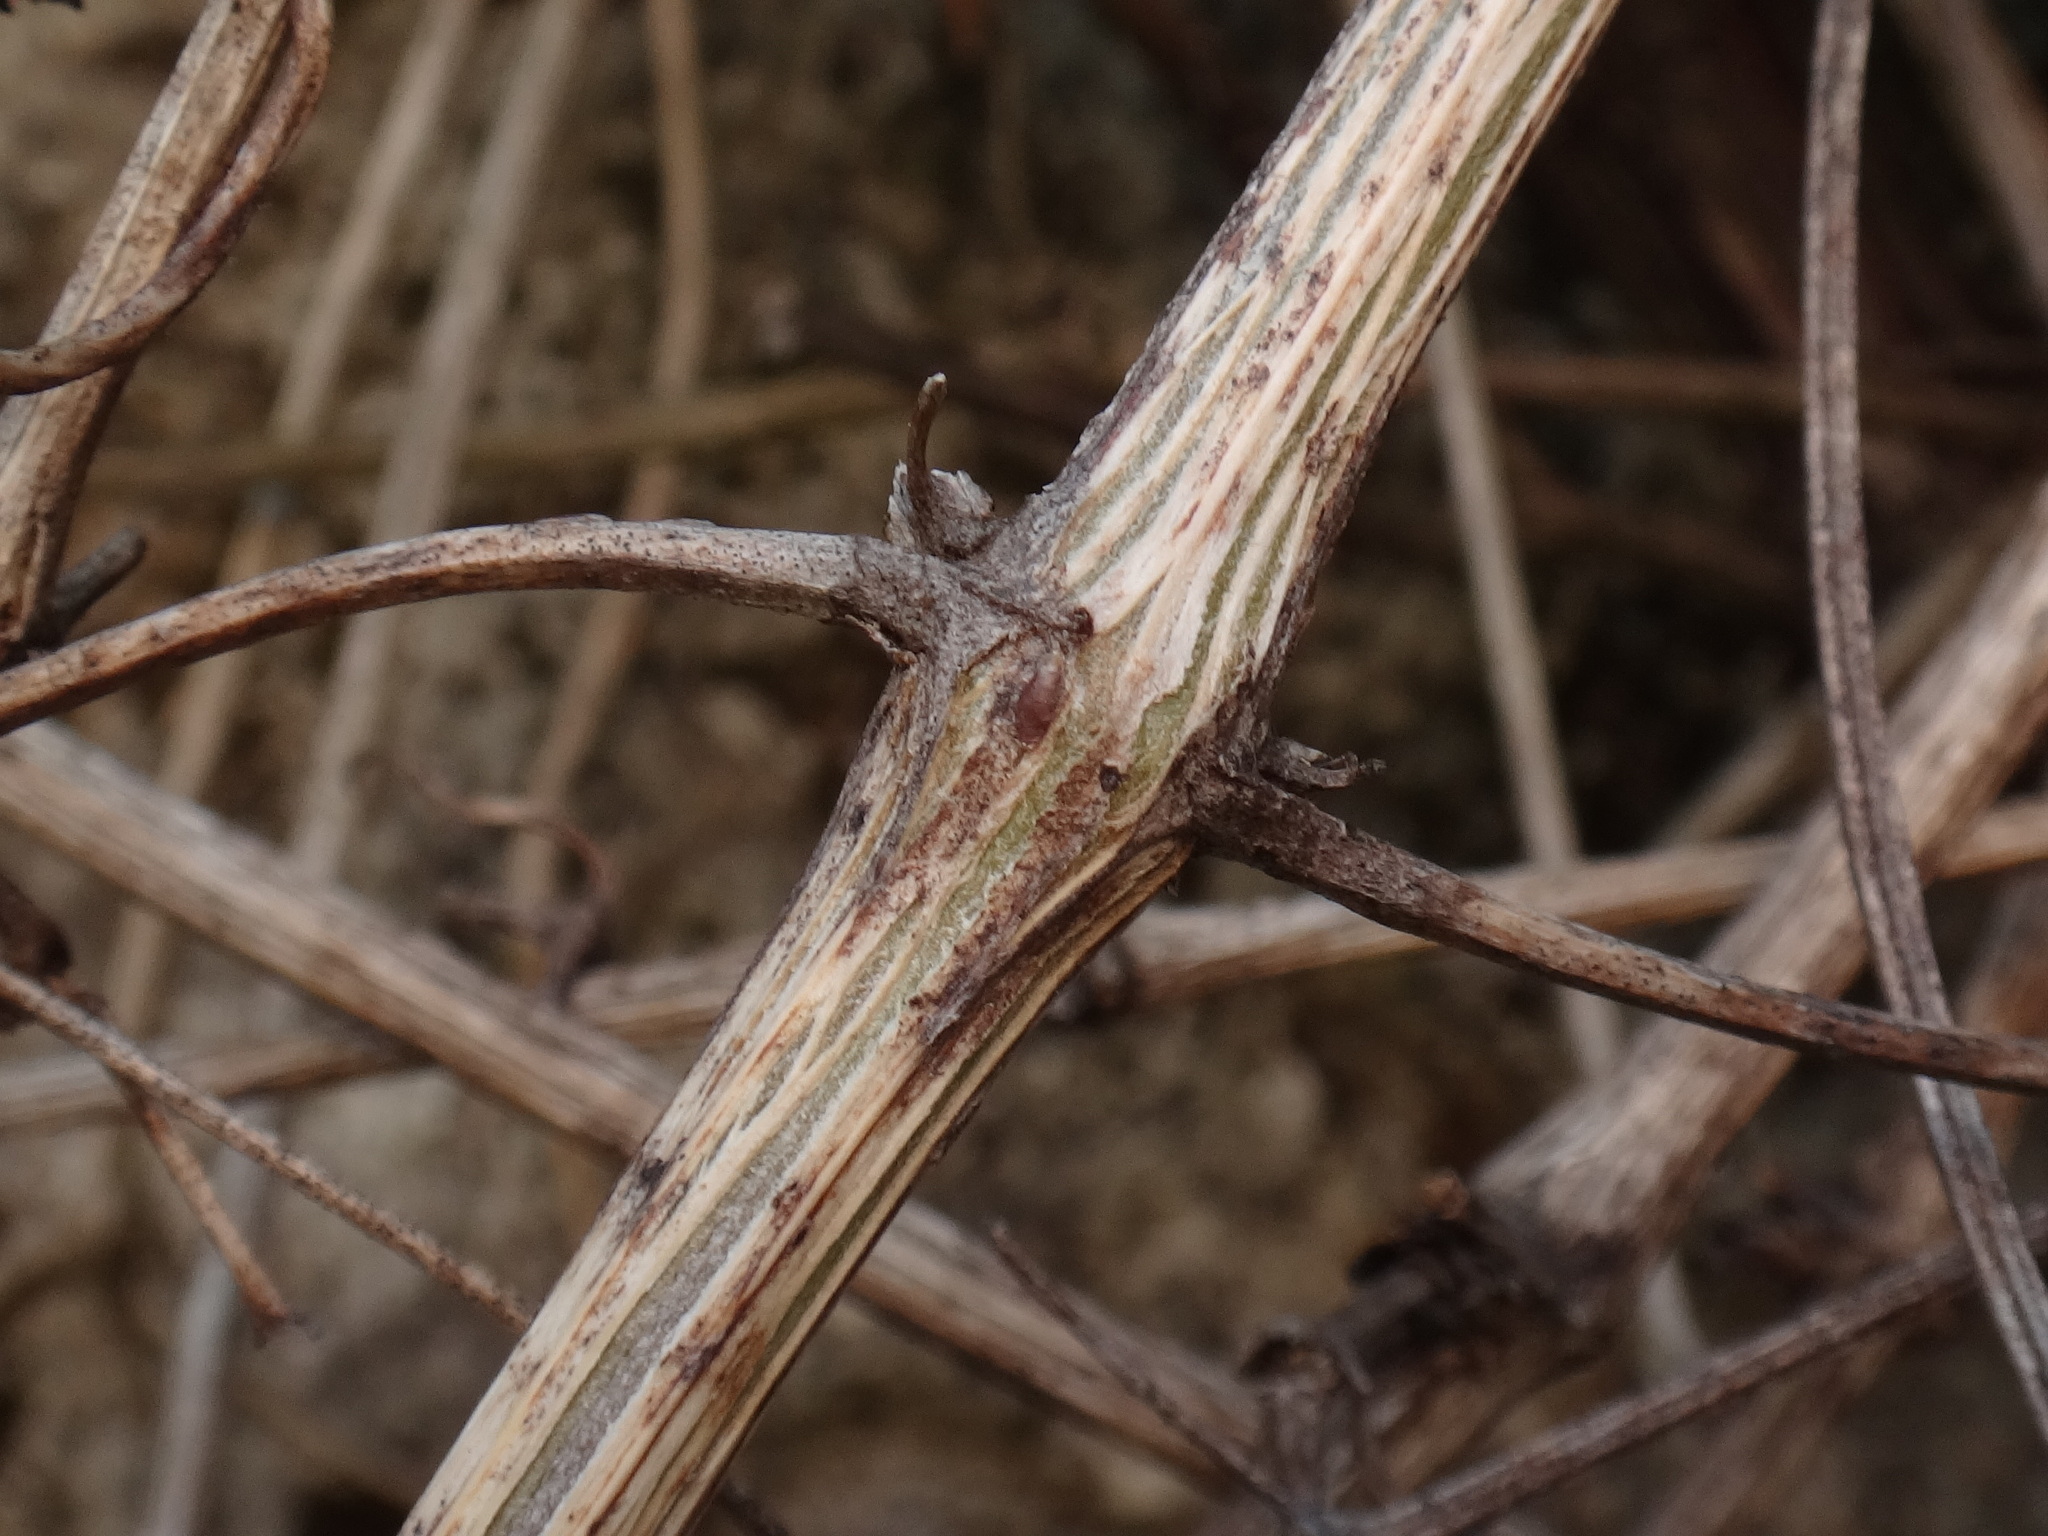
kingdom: Plantae
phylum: Tracheophyta
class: Magnoliopsida
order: Ranunculales
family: Ranunculaceae
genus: Clematis
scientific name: Clematis vitalba
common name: Evergreen clematis
